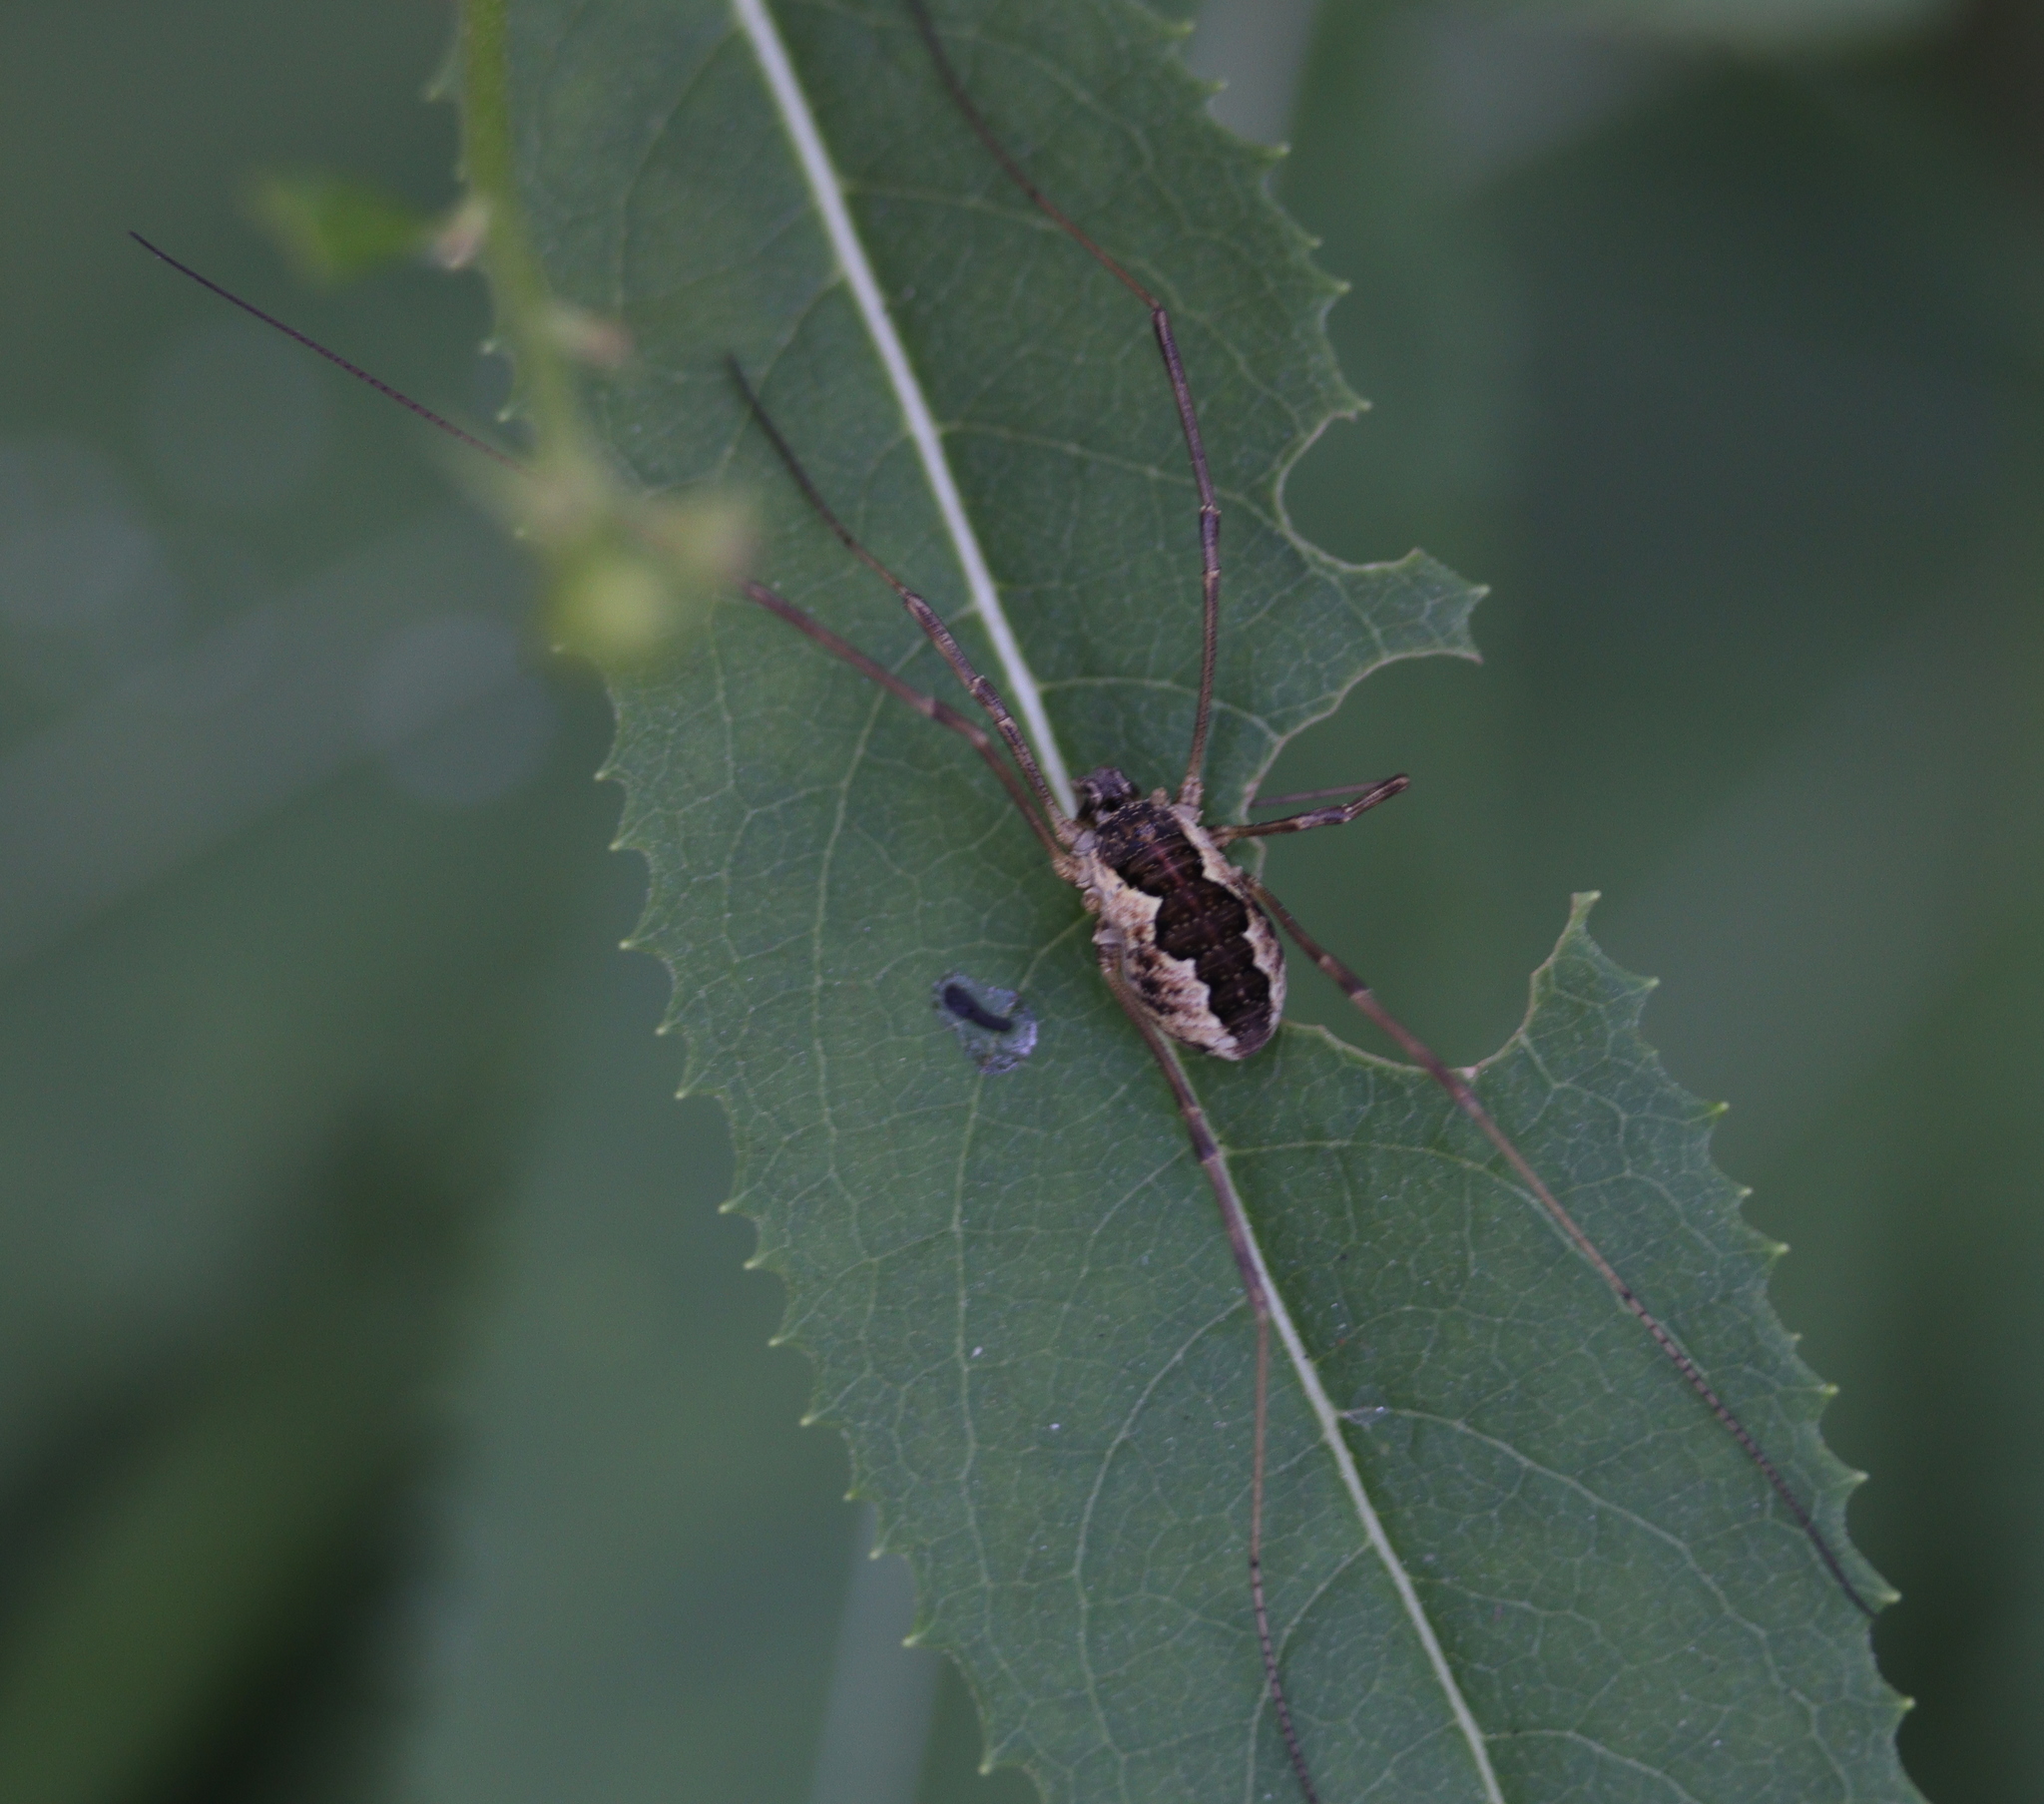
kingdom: Animalia
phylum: Arthropoda
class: Arachnida
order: Opiliones
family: Phalangiidae
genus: Mitopus
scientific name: Mitopus morio
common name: Saddleback harvestman
